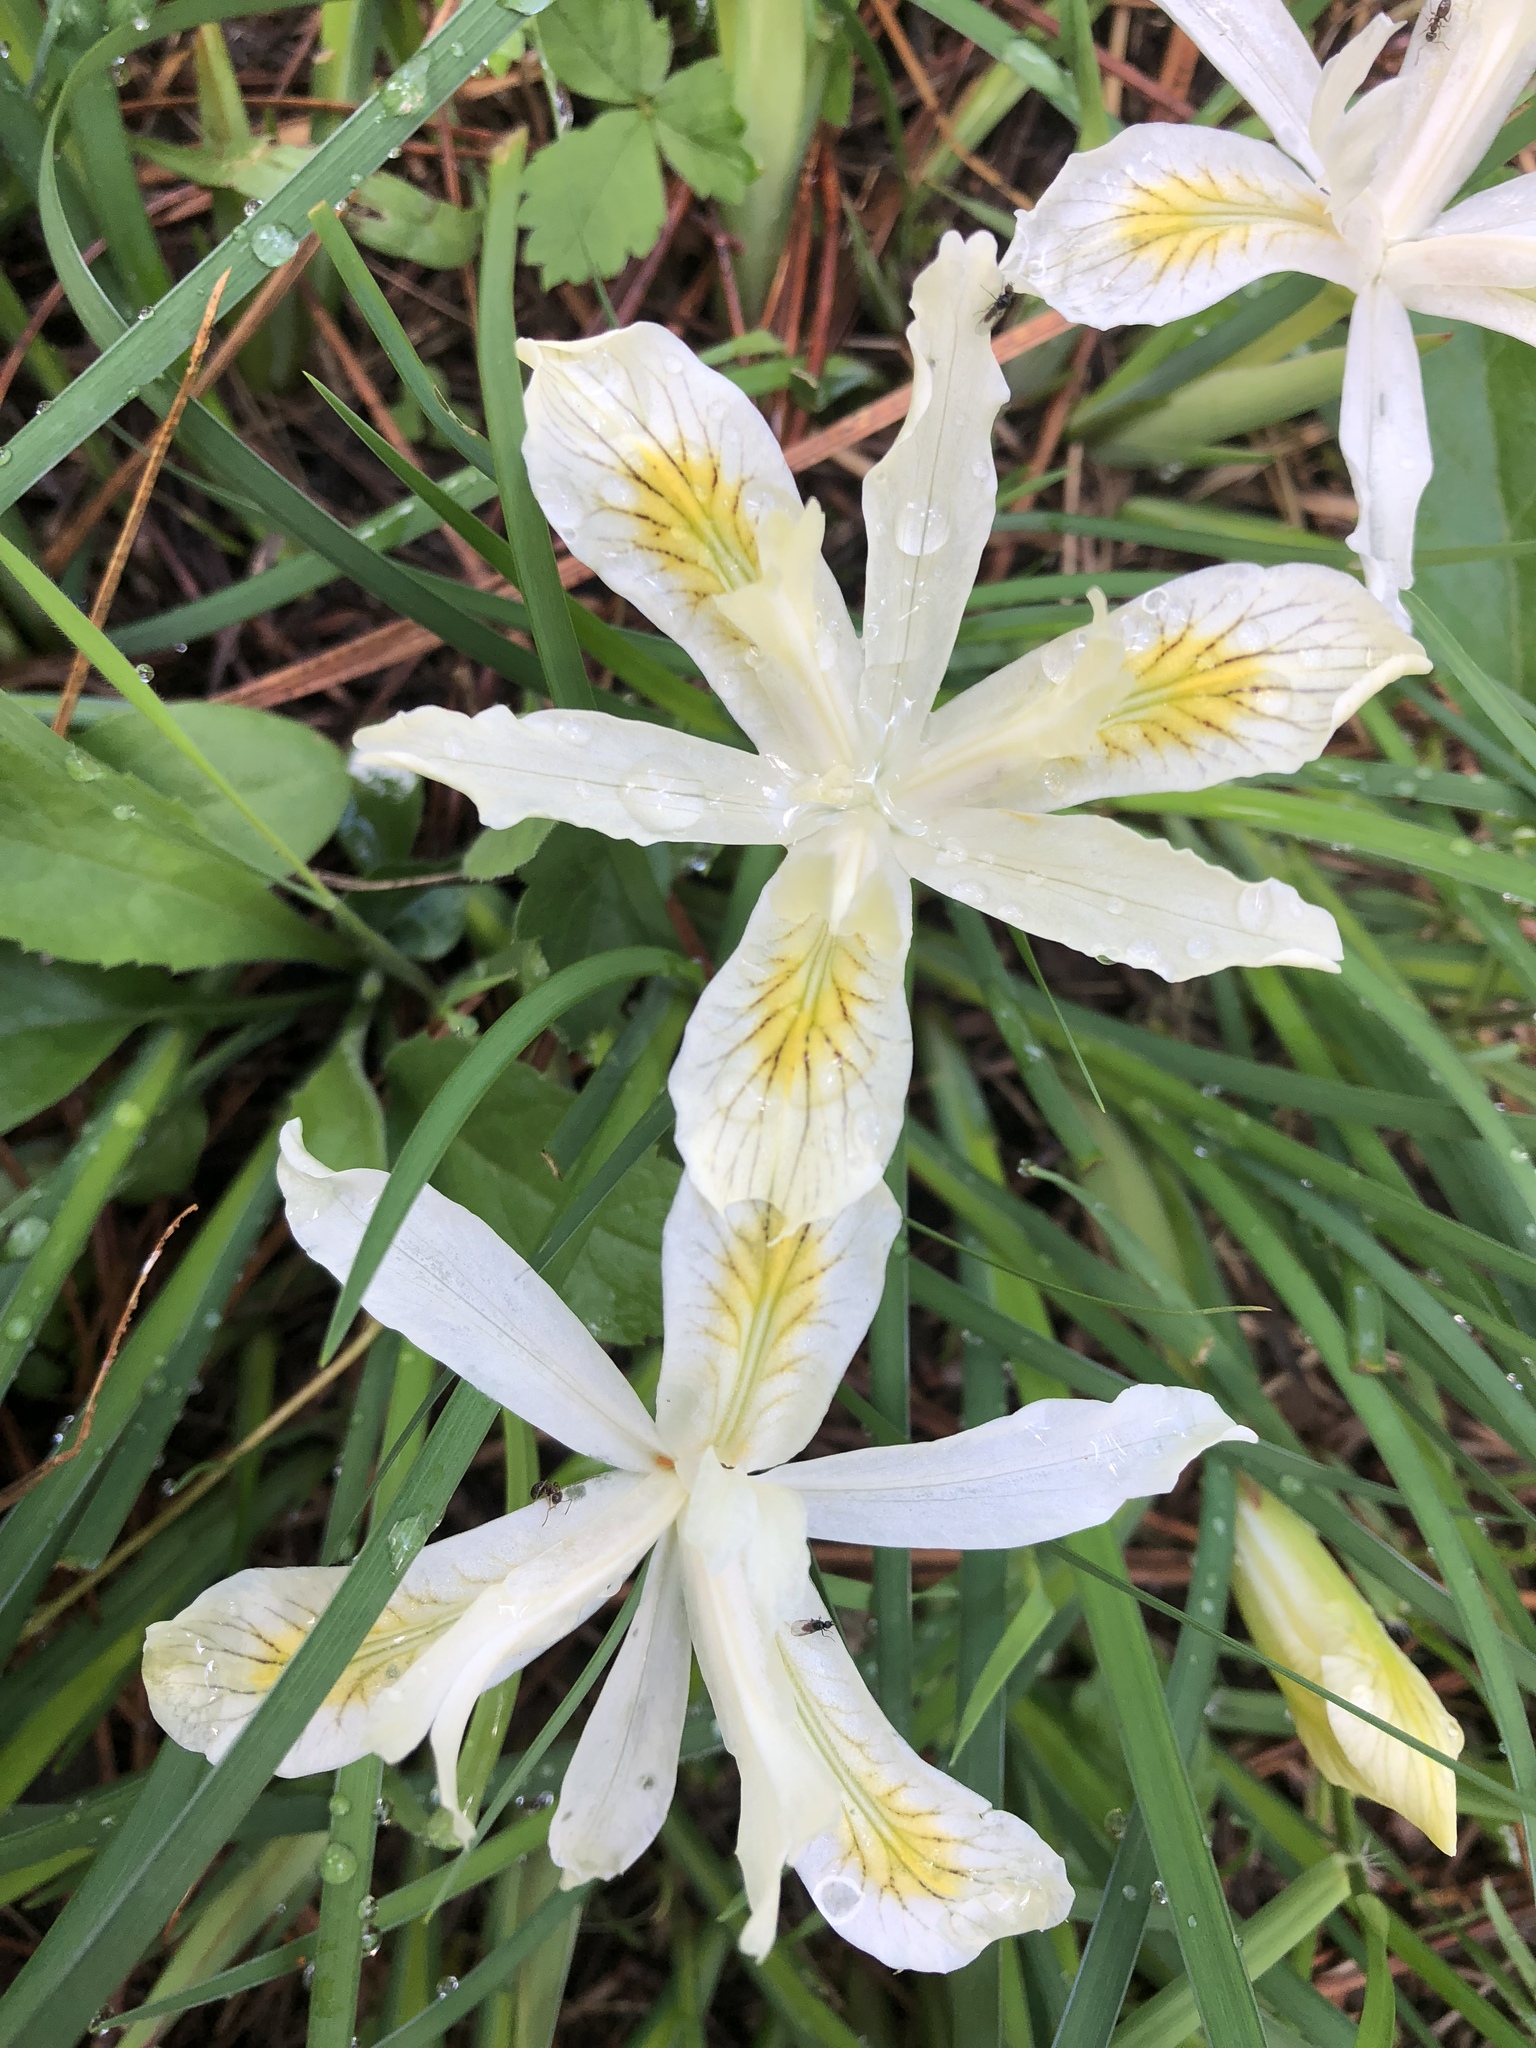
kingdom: Plantae
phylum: Tracheophyta
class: Liliopsida
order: Asparagales
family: Iridaceae
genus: Iris
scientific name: Iris chrysophylla
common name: Yellow-leaf iris
